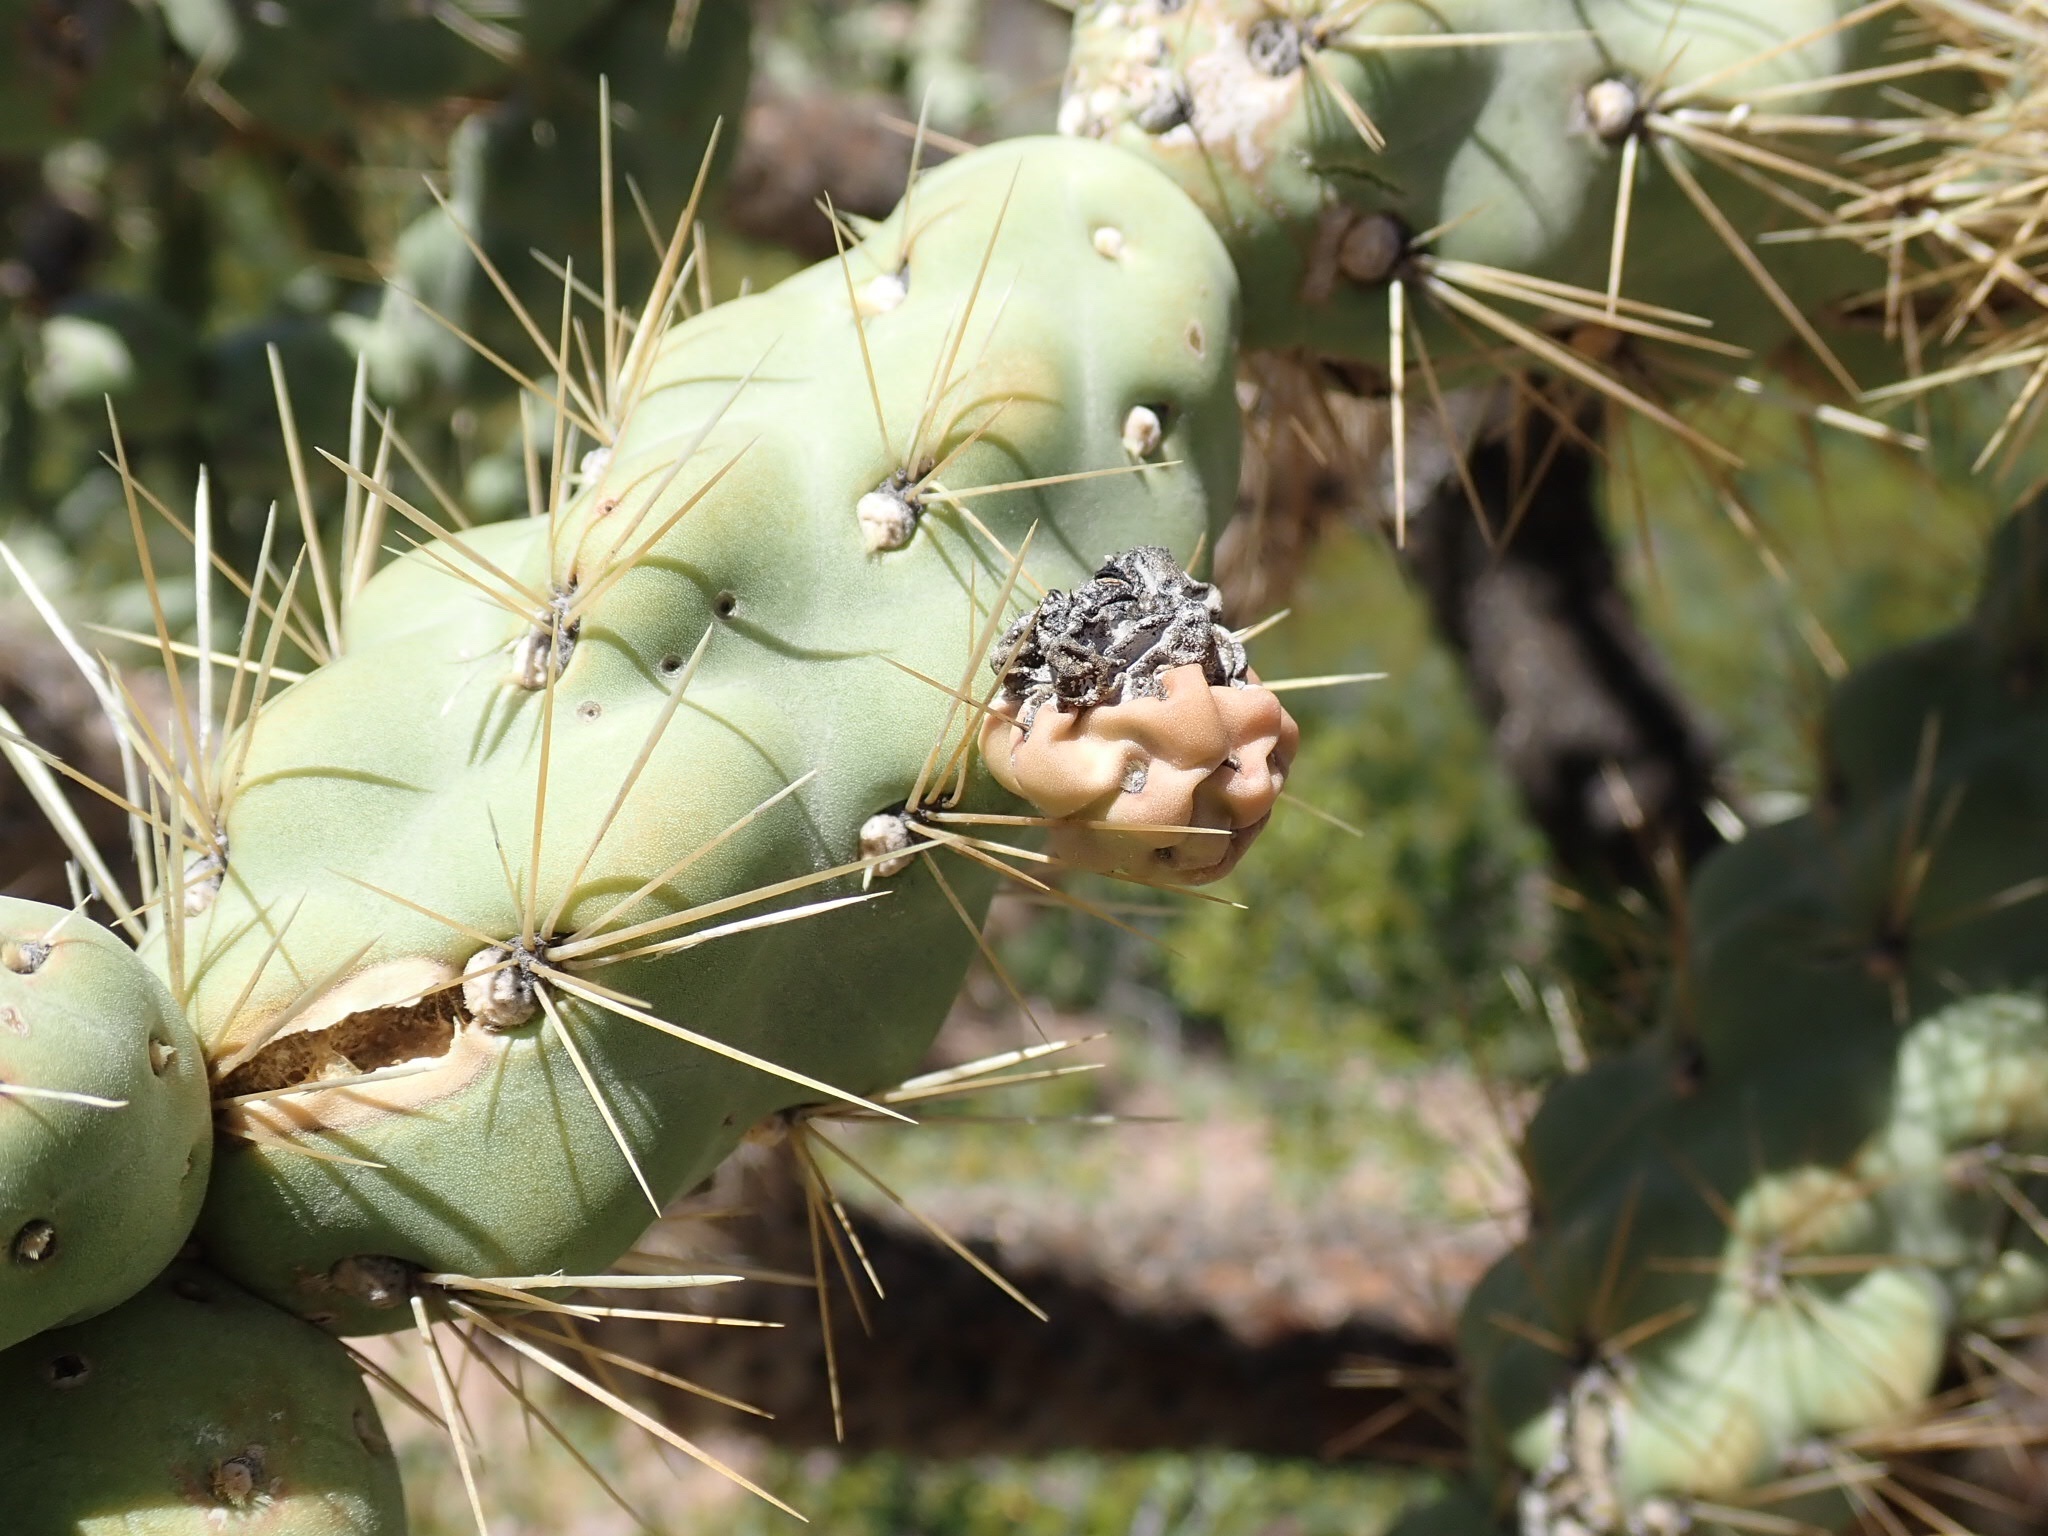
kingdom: Plantae
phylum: Tracheophyta
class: Magnoliopsida
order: Caryophyllales
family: Cactaceae
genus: Cylindropuntia
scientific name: Cylindropuntia fulgida
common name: Jumping cholla
